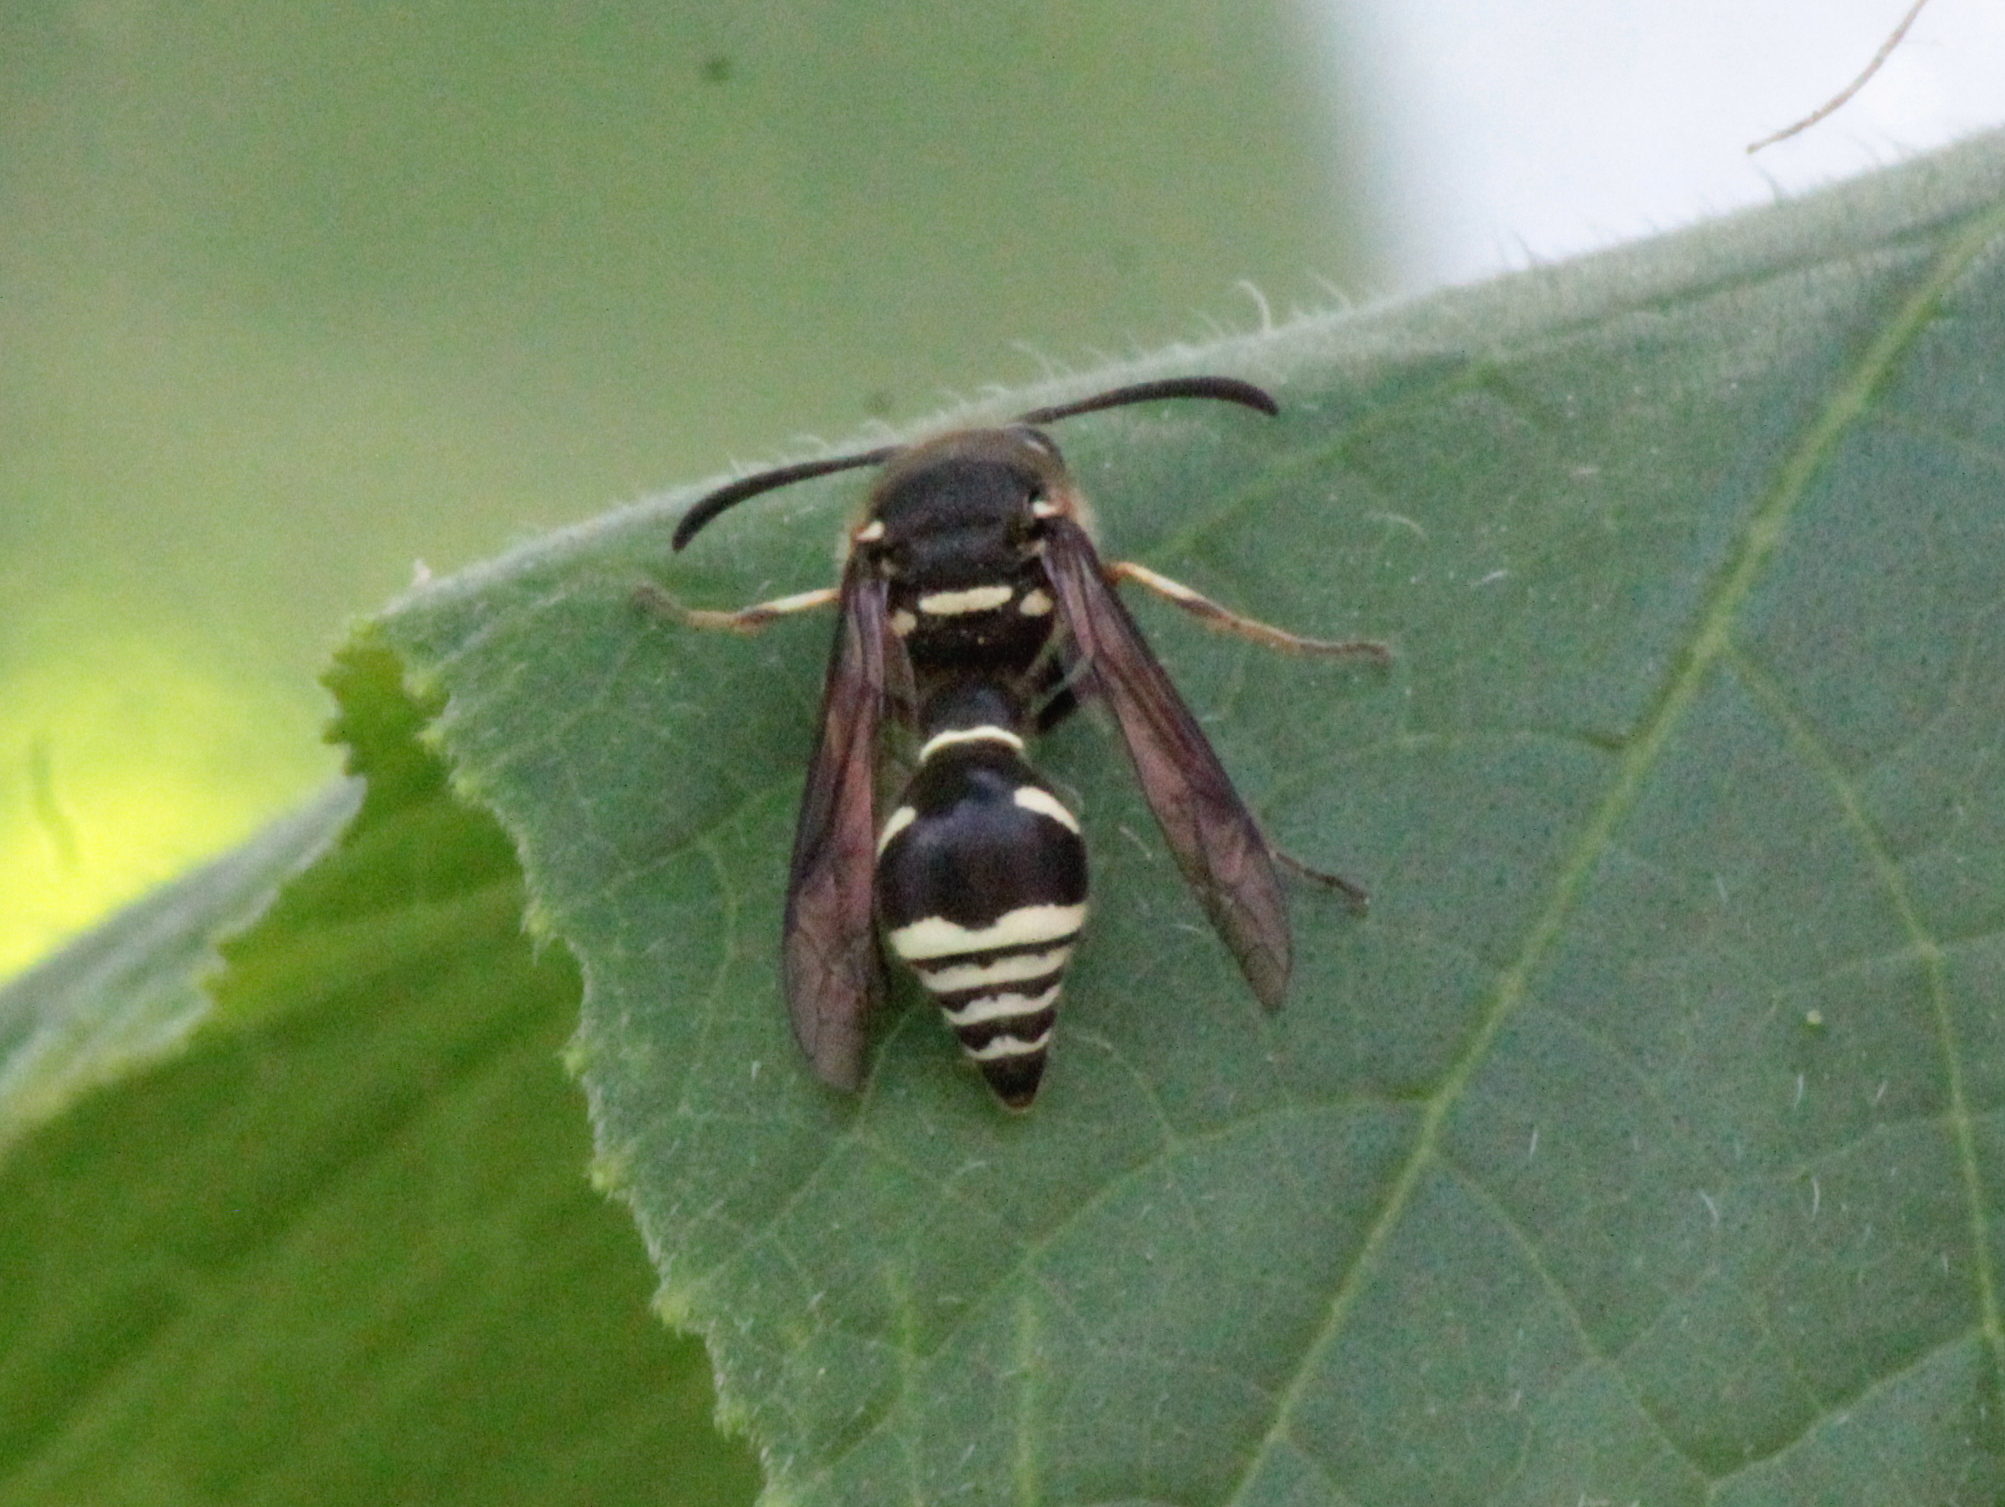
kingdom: Animalia
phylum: Arthropoda
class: Insecta
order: Hymenoptera
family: Vespidae
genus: Eumenes
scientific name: Eumenes crucifera
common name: Cross potter wasp
